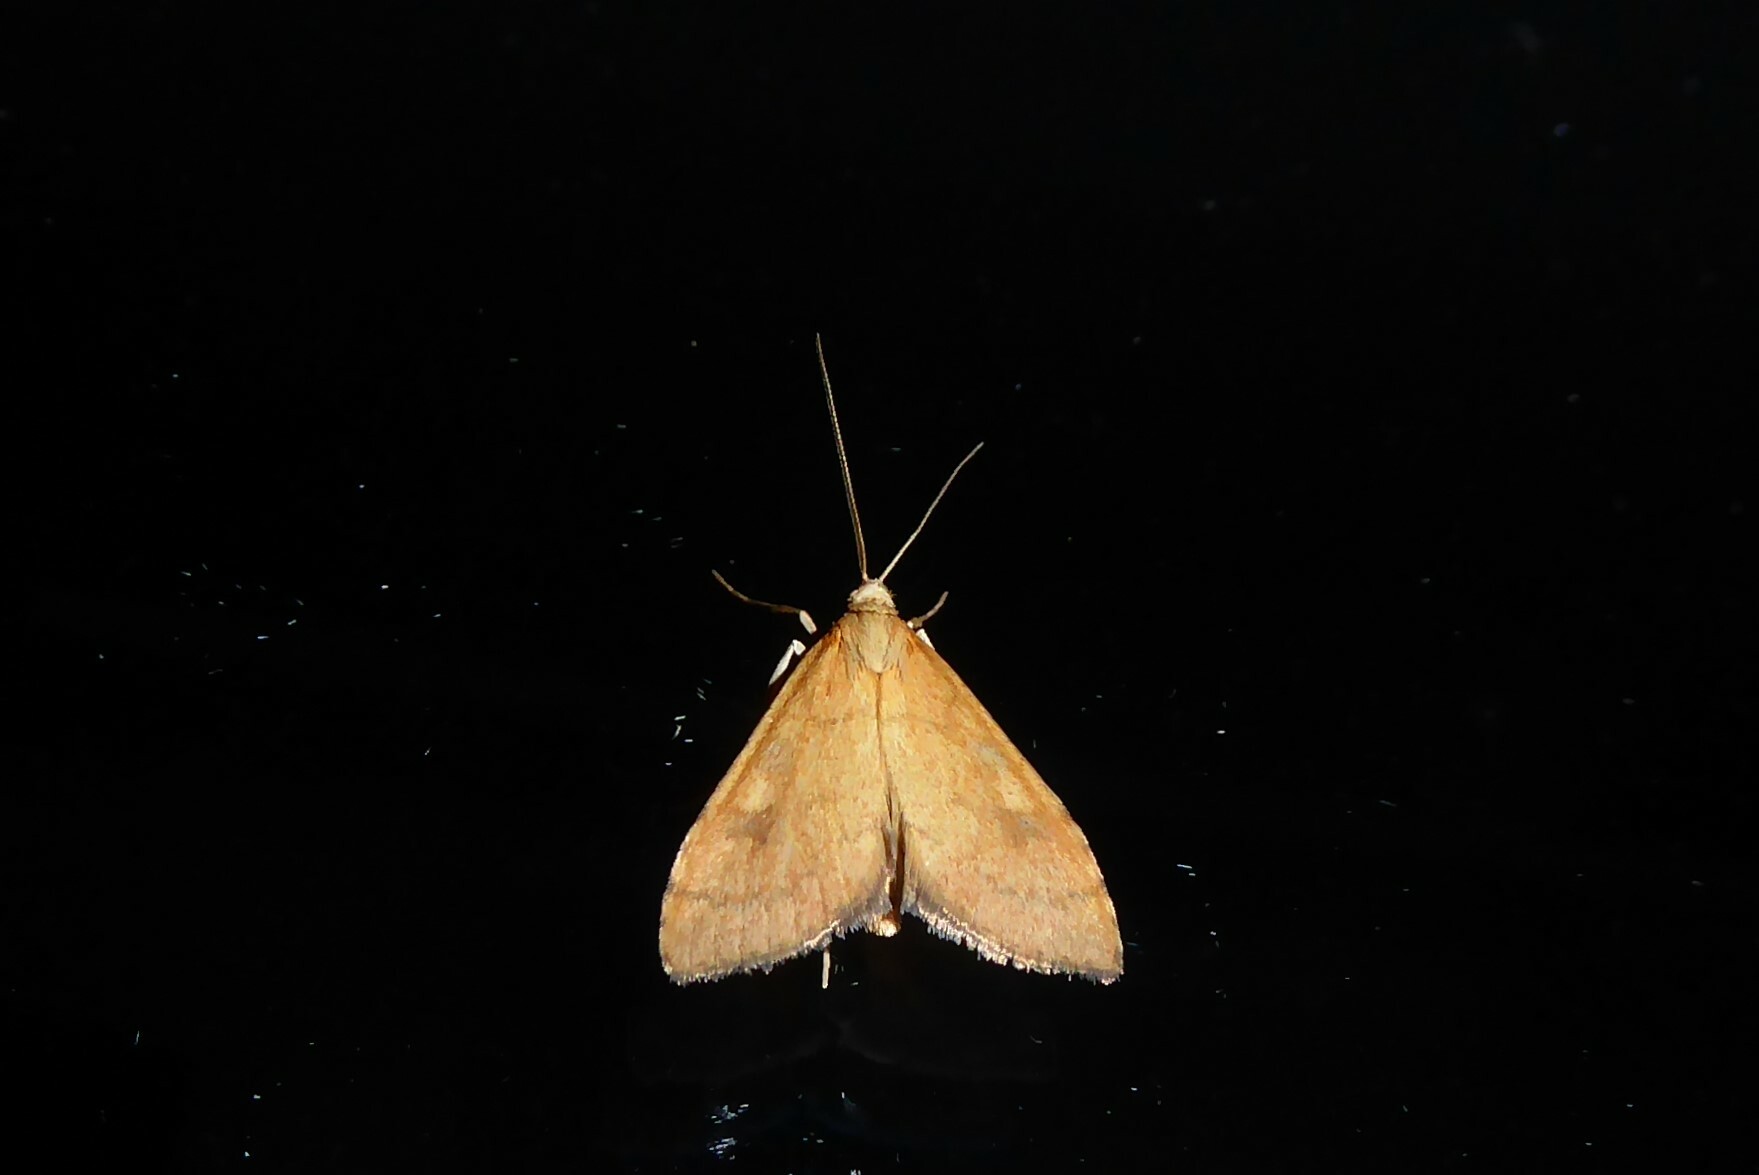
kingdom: Animalia
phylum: Arthropoda
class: Insecta
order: Lepidoptera
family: Crambidae
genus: Udea
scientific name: Udea Mnesictena flavidalis
